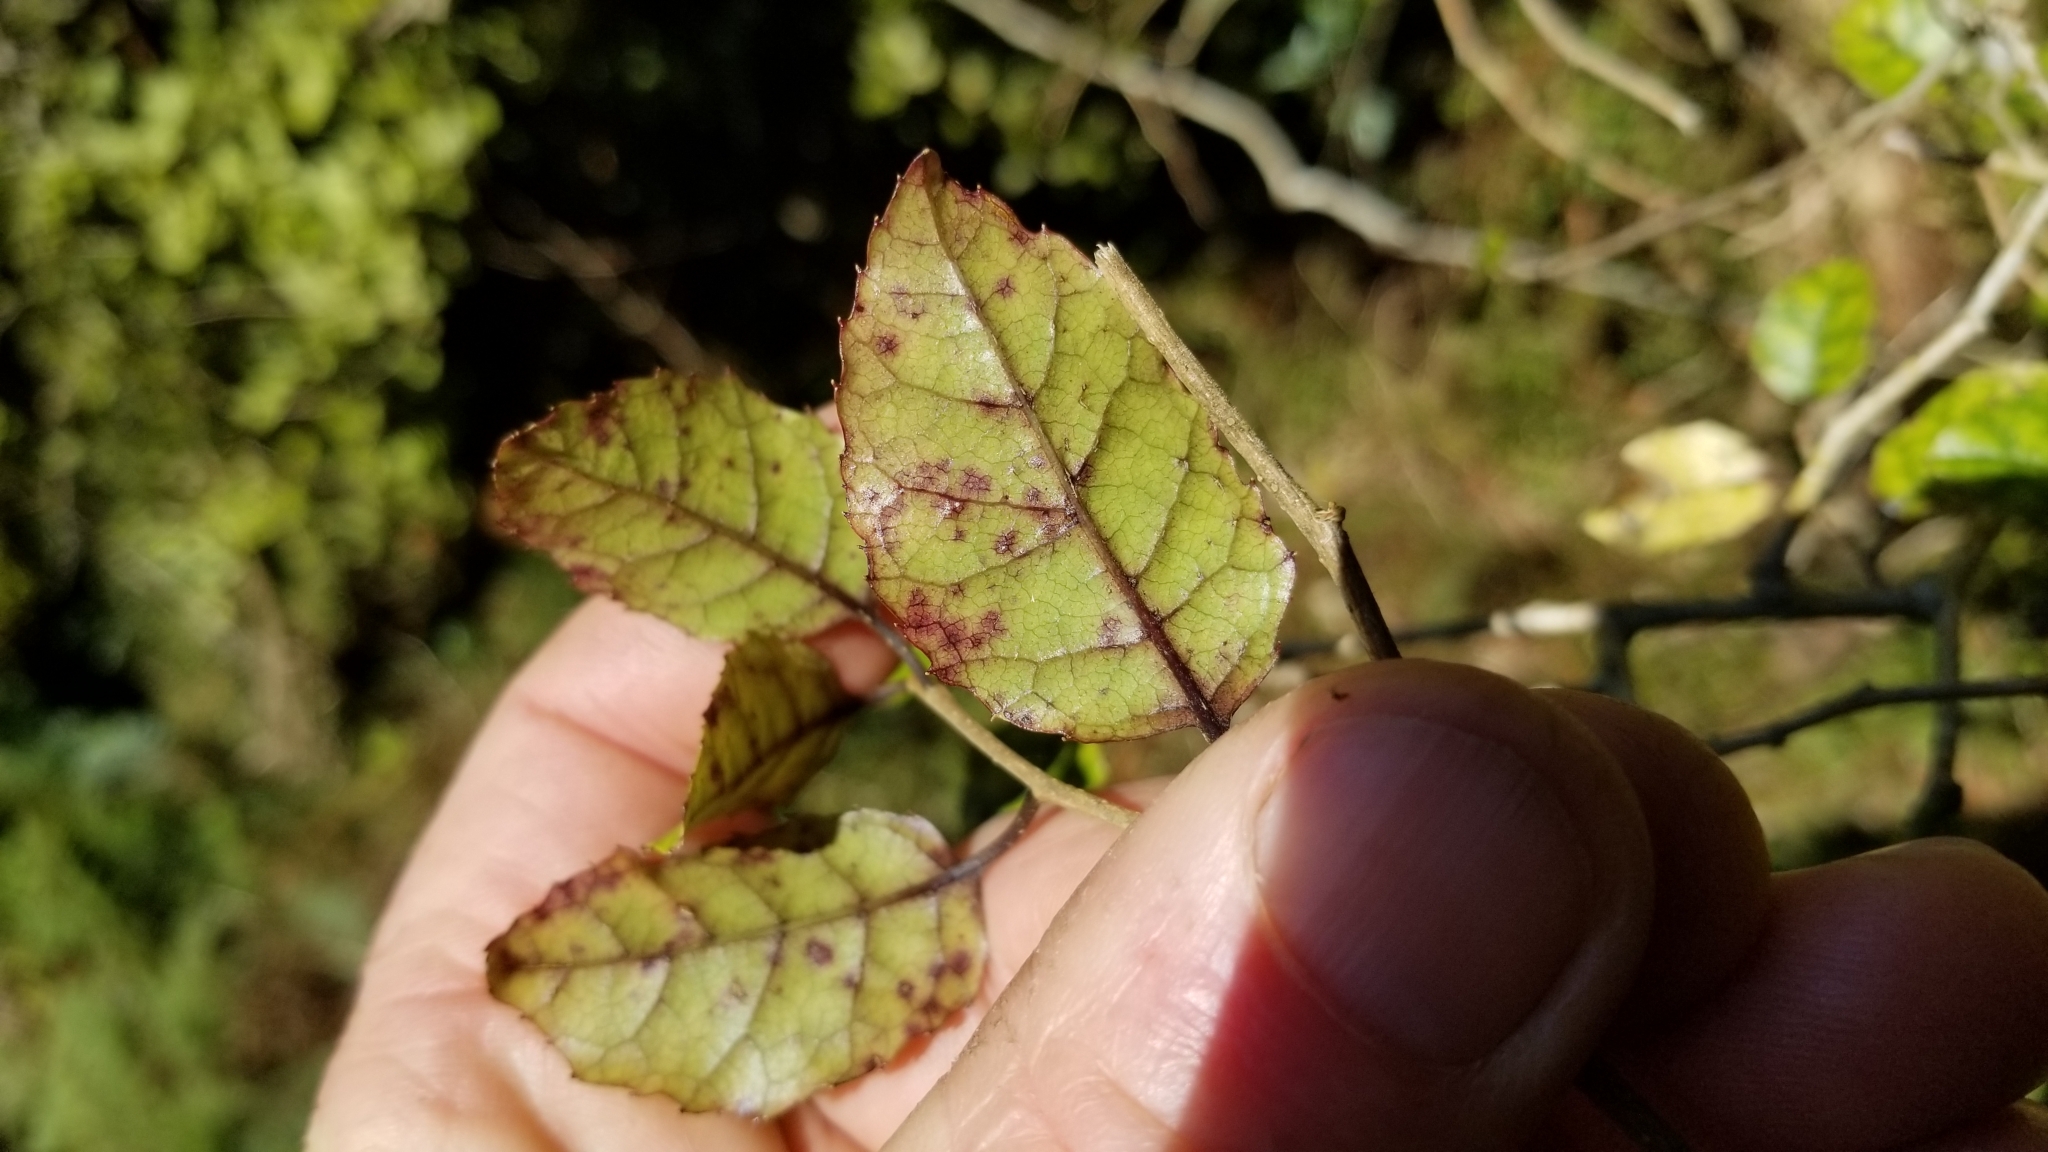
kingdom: Plantae
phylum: Tracheophyta
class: Magnoliopsida
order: Asterales
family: Rousseaceae
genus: Carpodetus
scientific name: Carpodetus serratus
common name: White mapau
